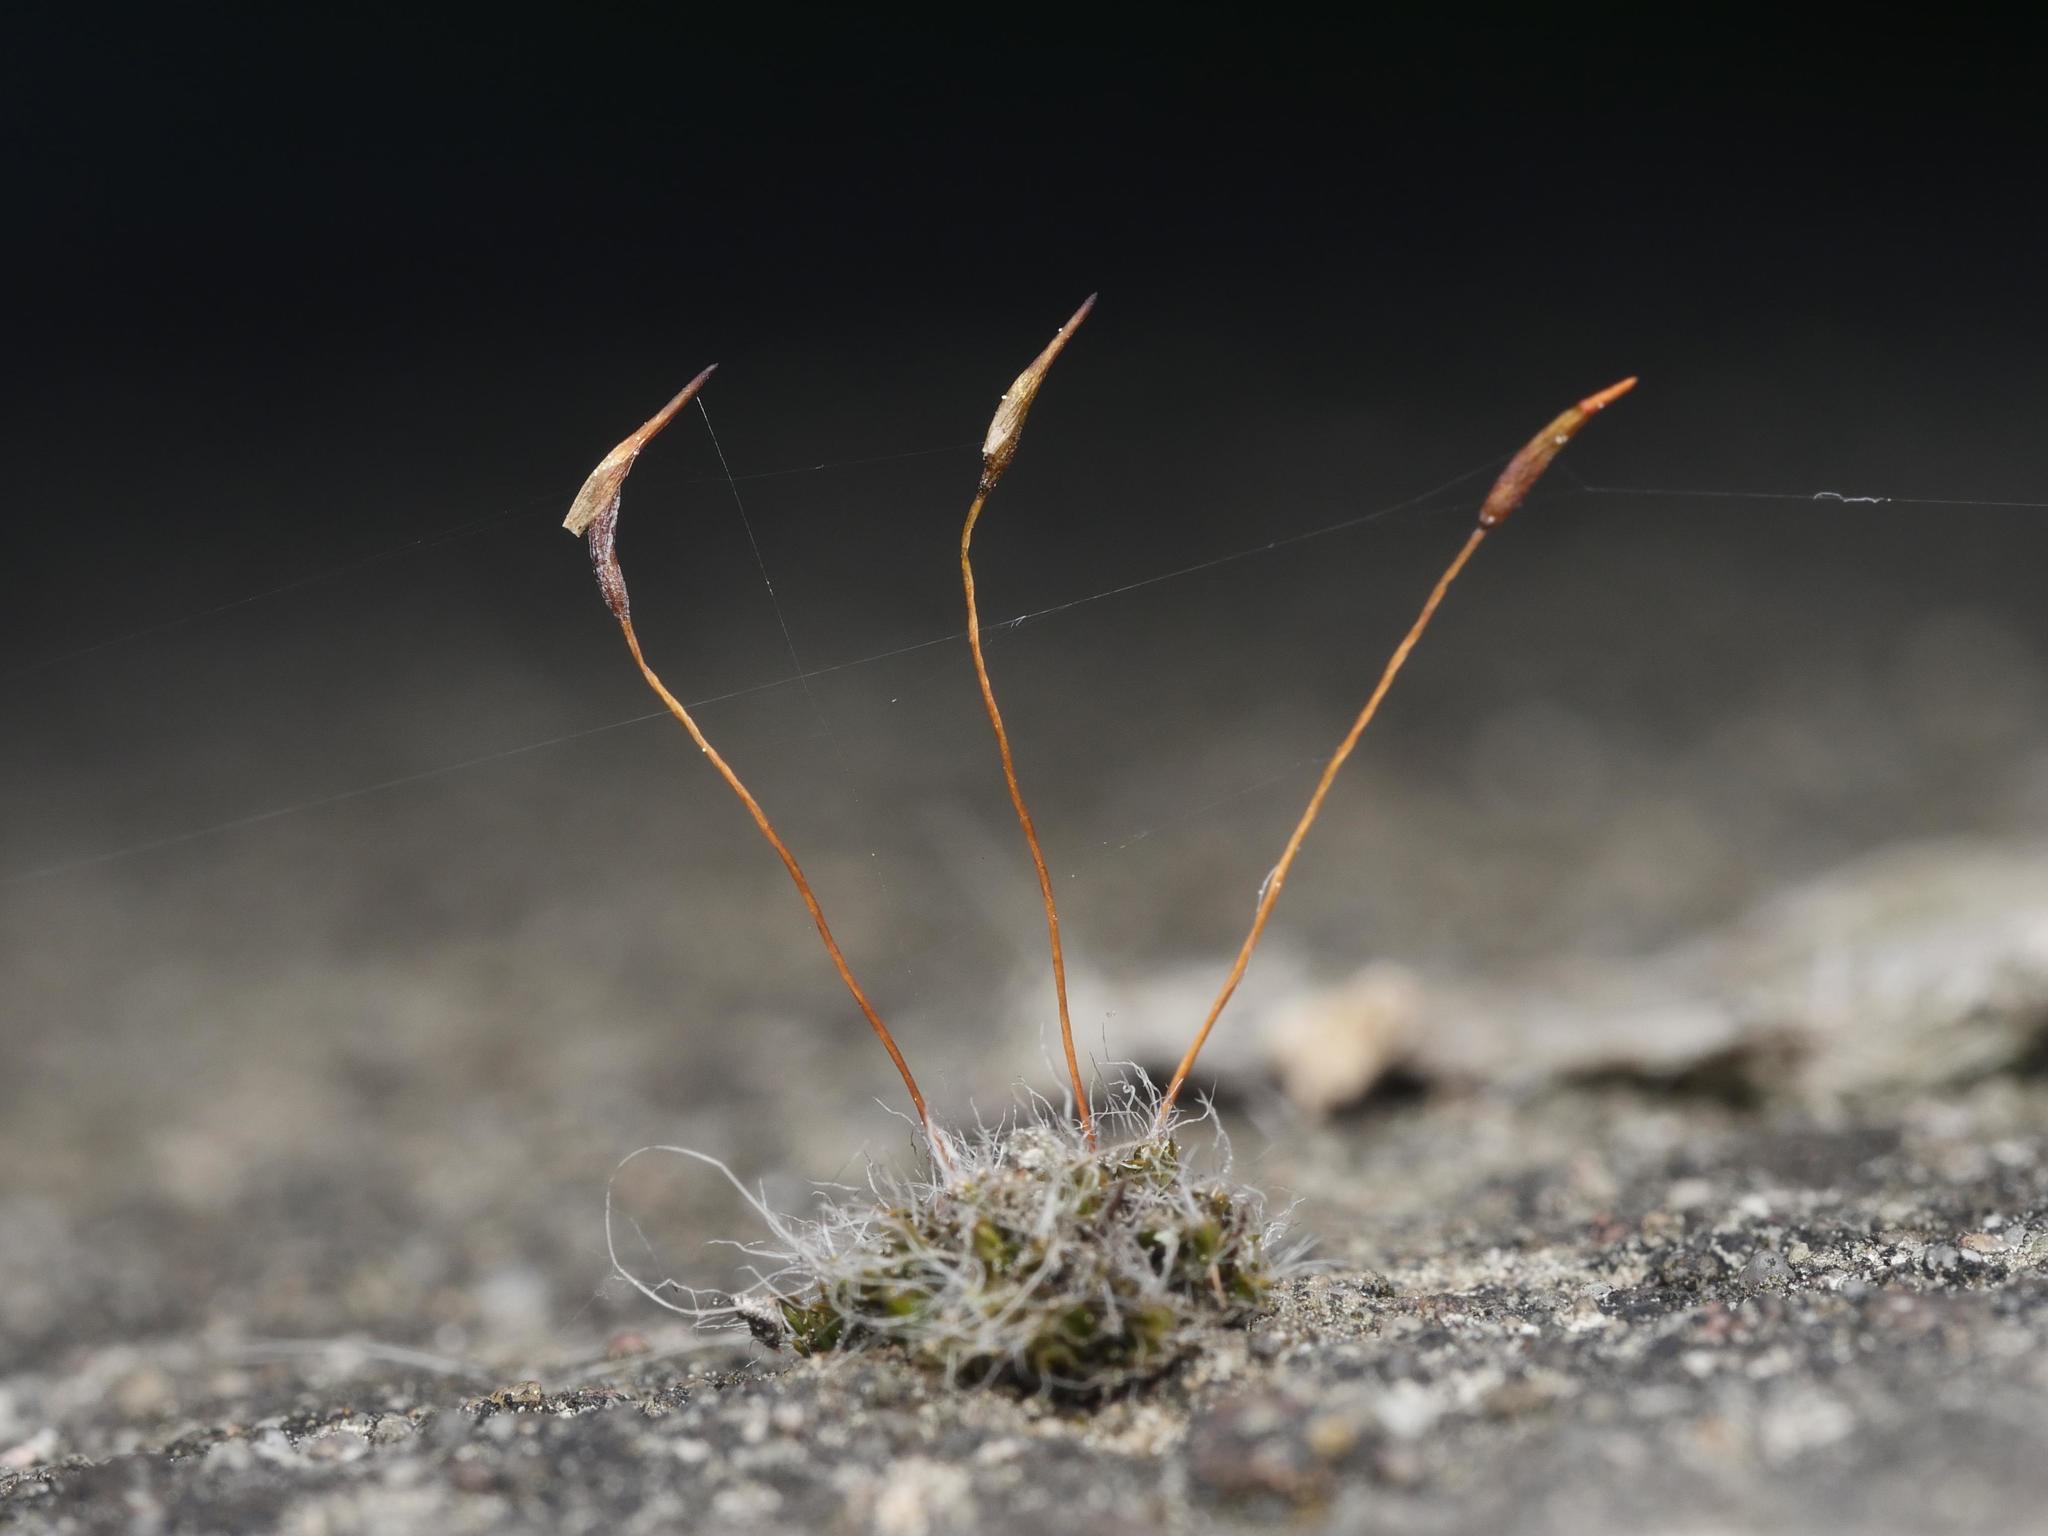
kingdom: Plantae
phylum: Bryophyta
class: Bryopsida
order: Pottiales
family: Pottiaceae
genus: Tortula
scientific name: Tortula muralis
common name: Wall screw-moss
